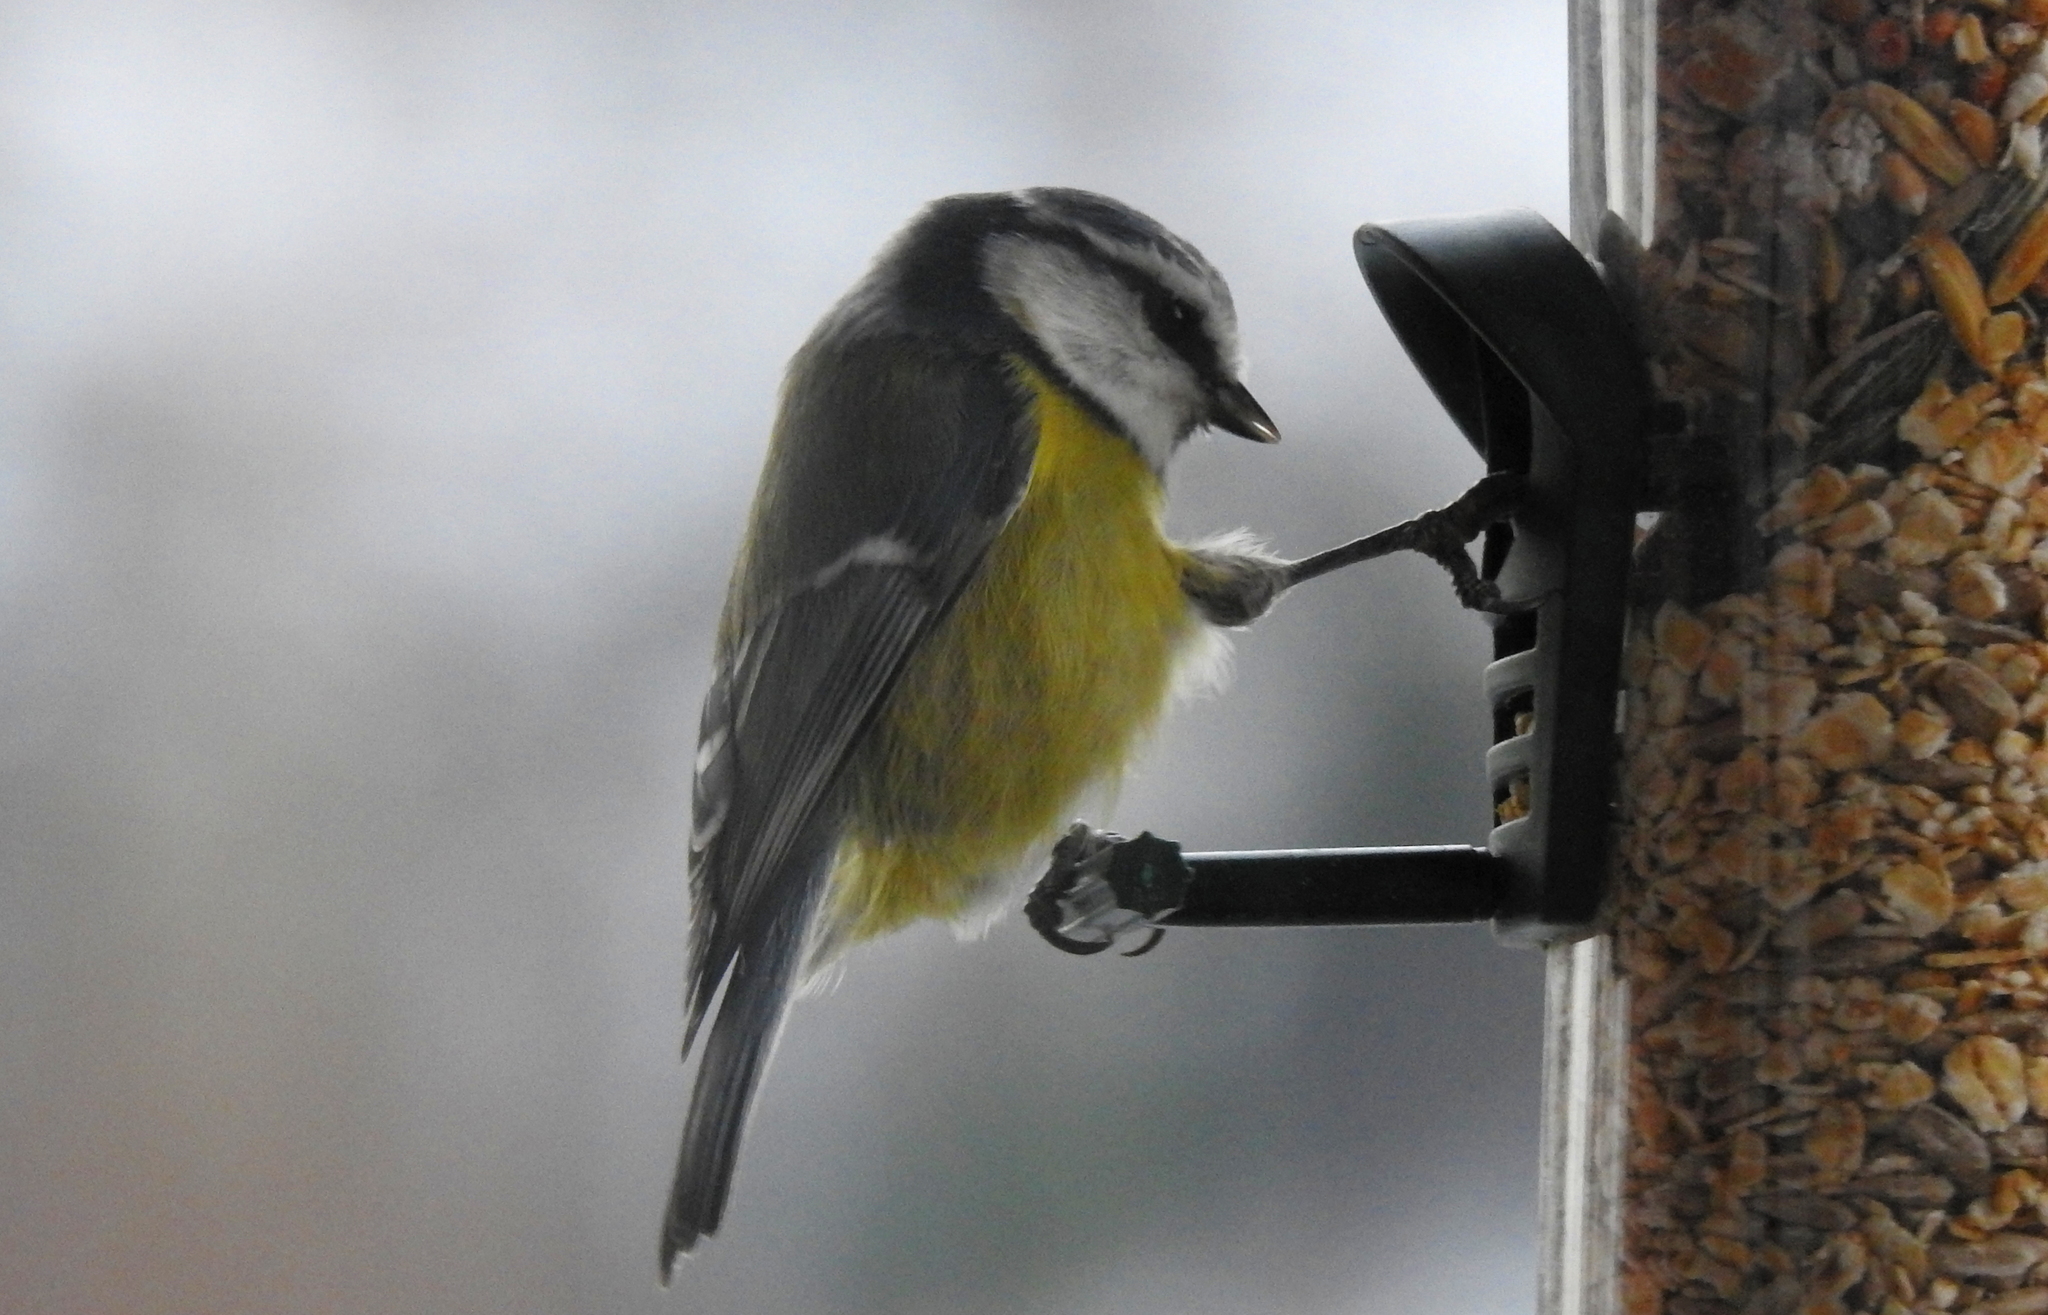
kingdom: Animalia
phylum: Chordata
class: Aves
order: Passeriformes
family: Paridae
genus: Cyanistes
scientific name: Cyanistes caeruleus
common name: Eurasian blue tit
